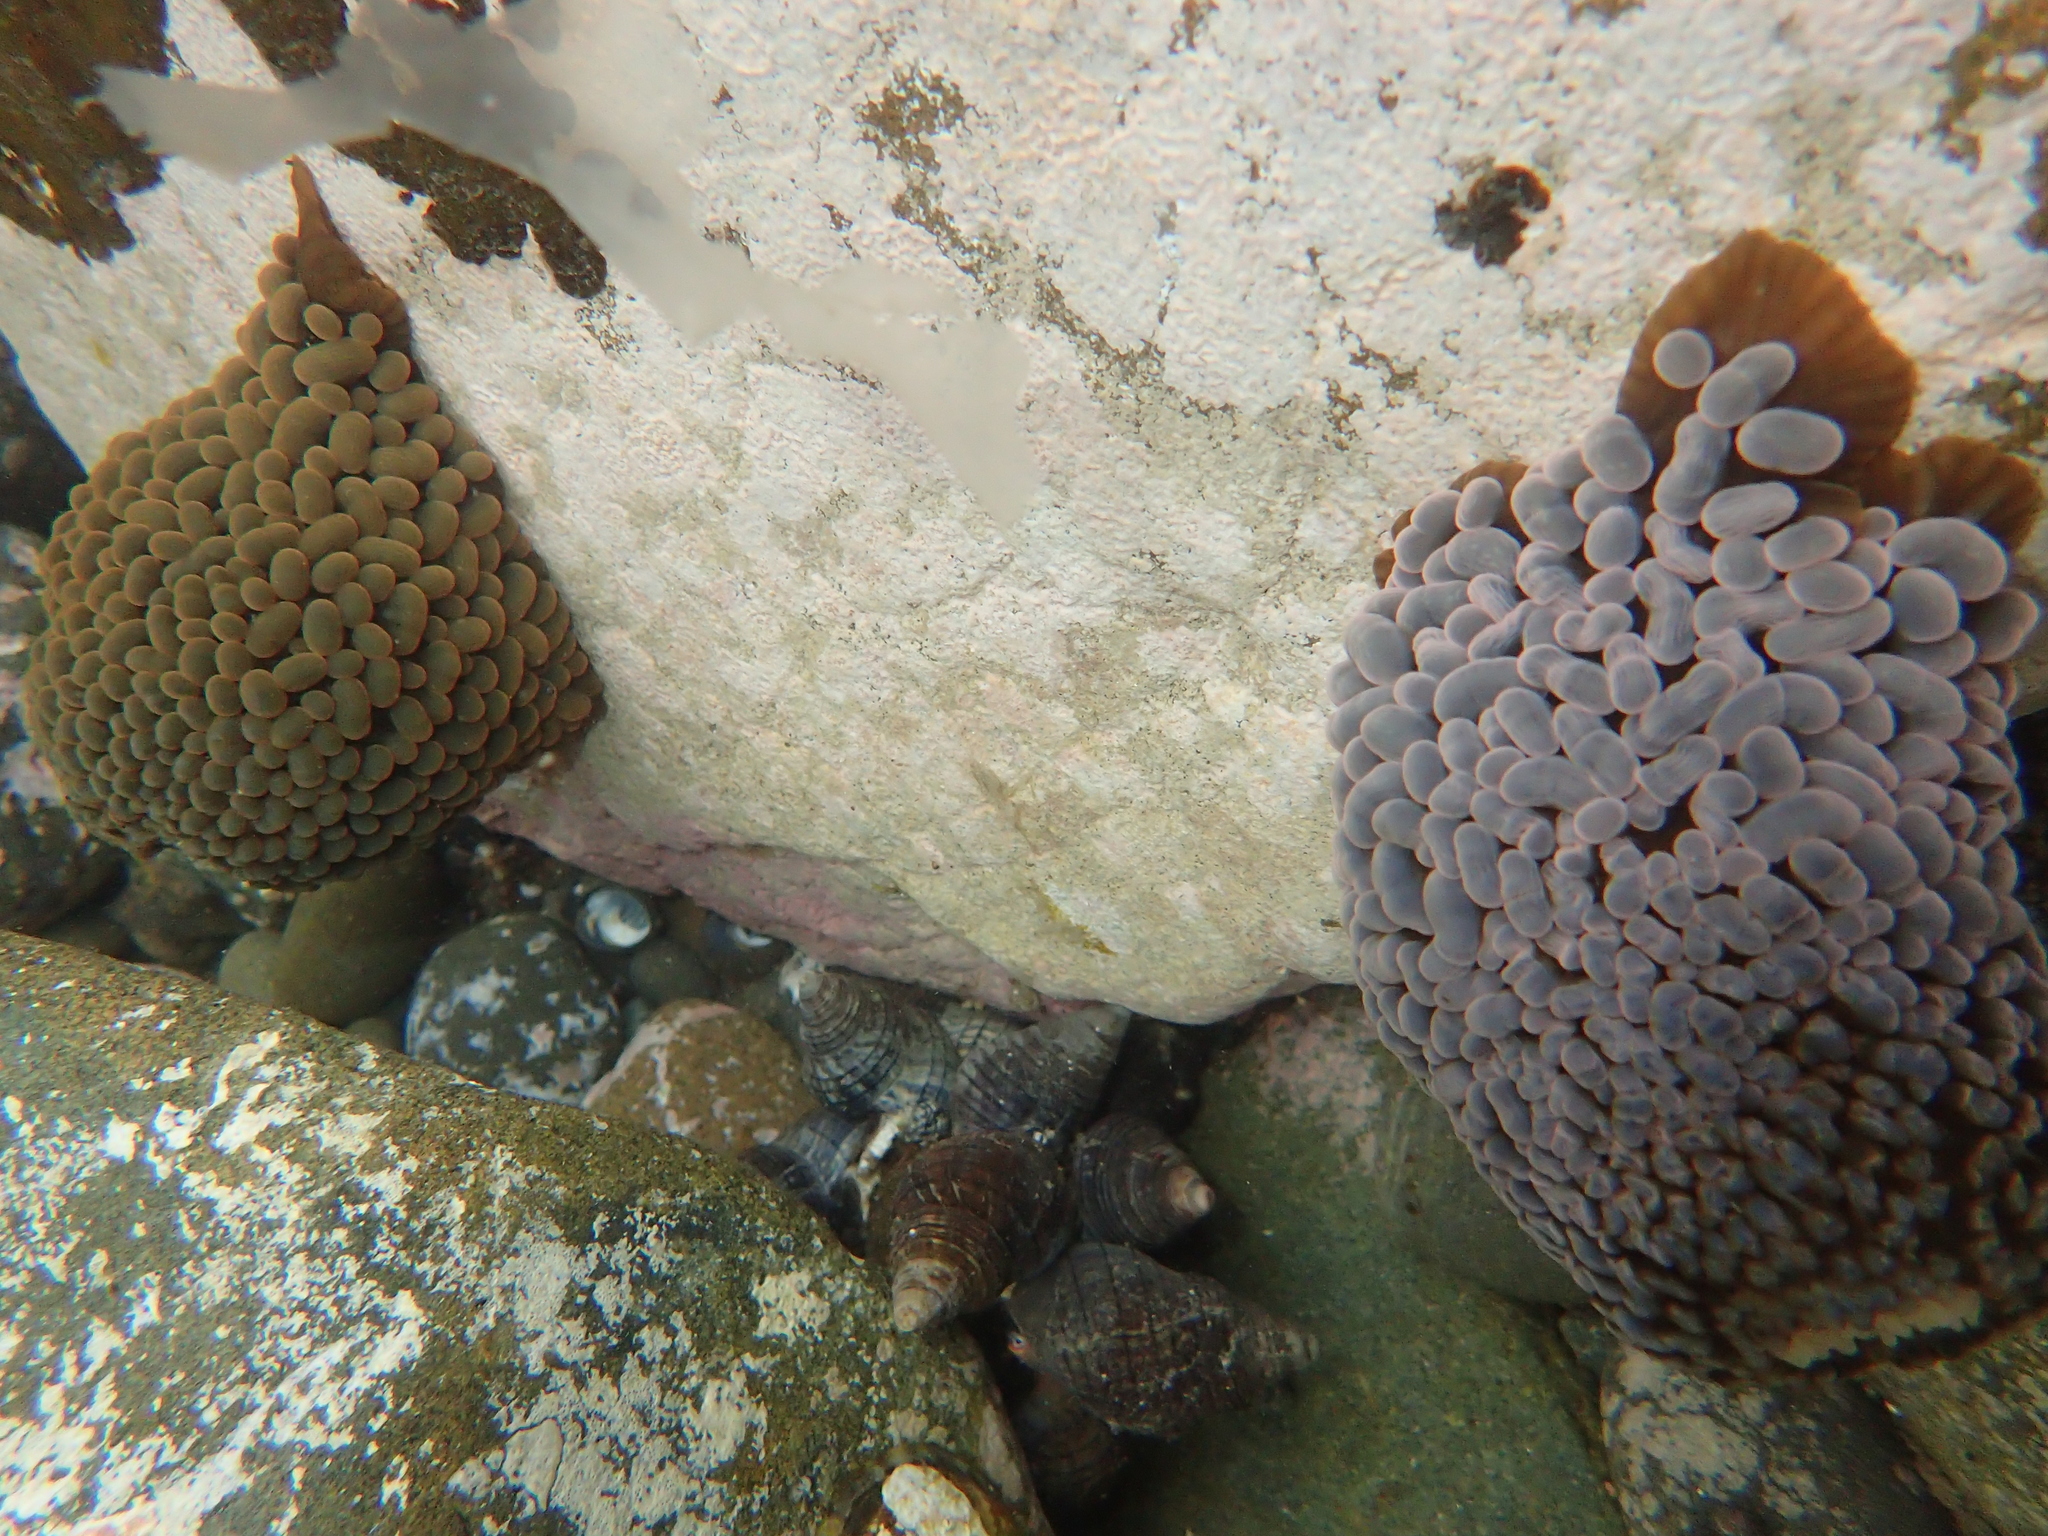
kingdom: Animalia
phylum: Cnidaria
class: Anthozoa
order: Actiniaria
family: Actiniidae
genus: Phlyctenactis
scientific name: Phlyctenactis tuberculosa
